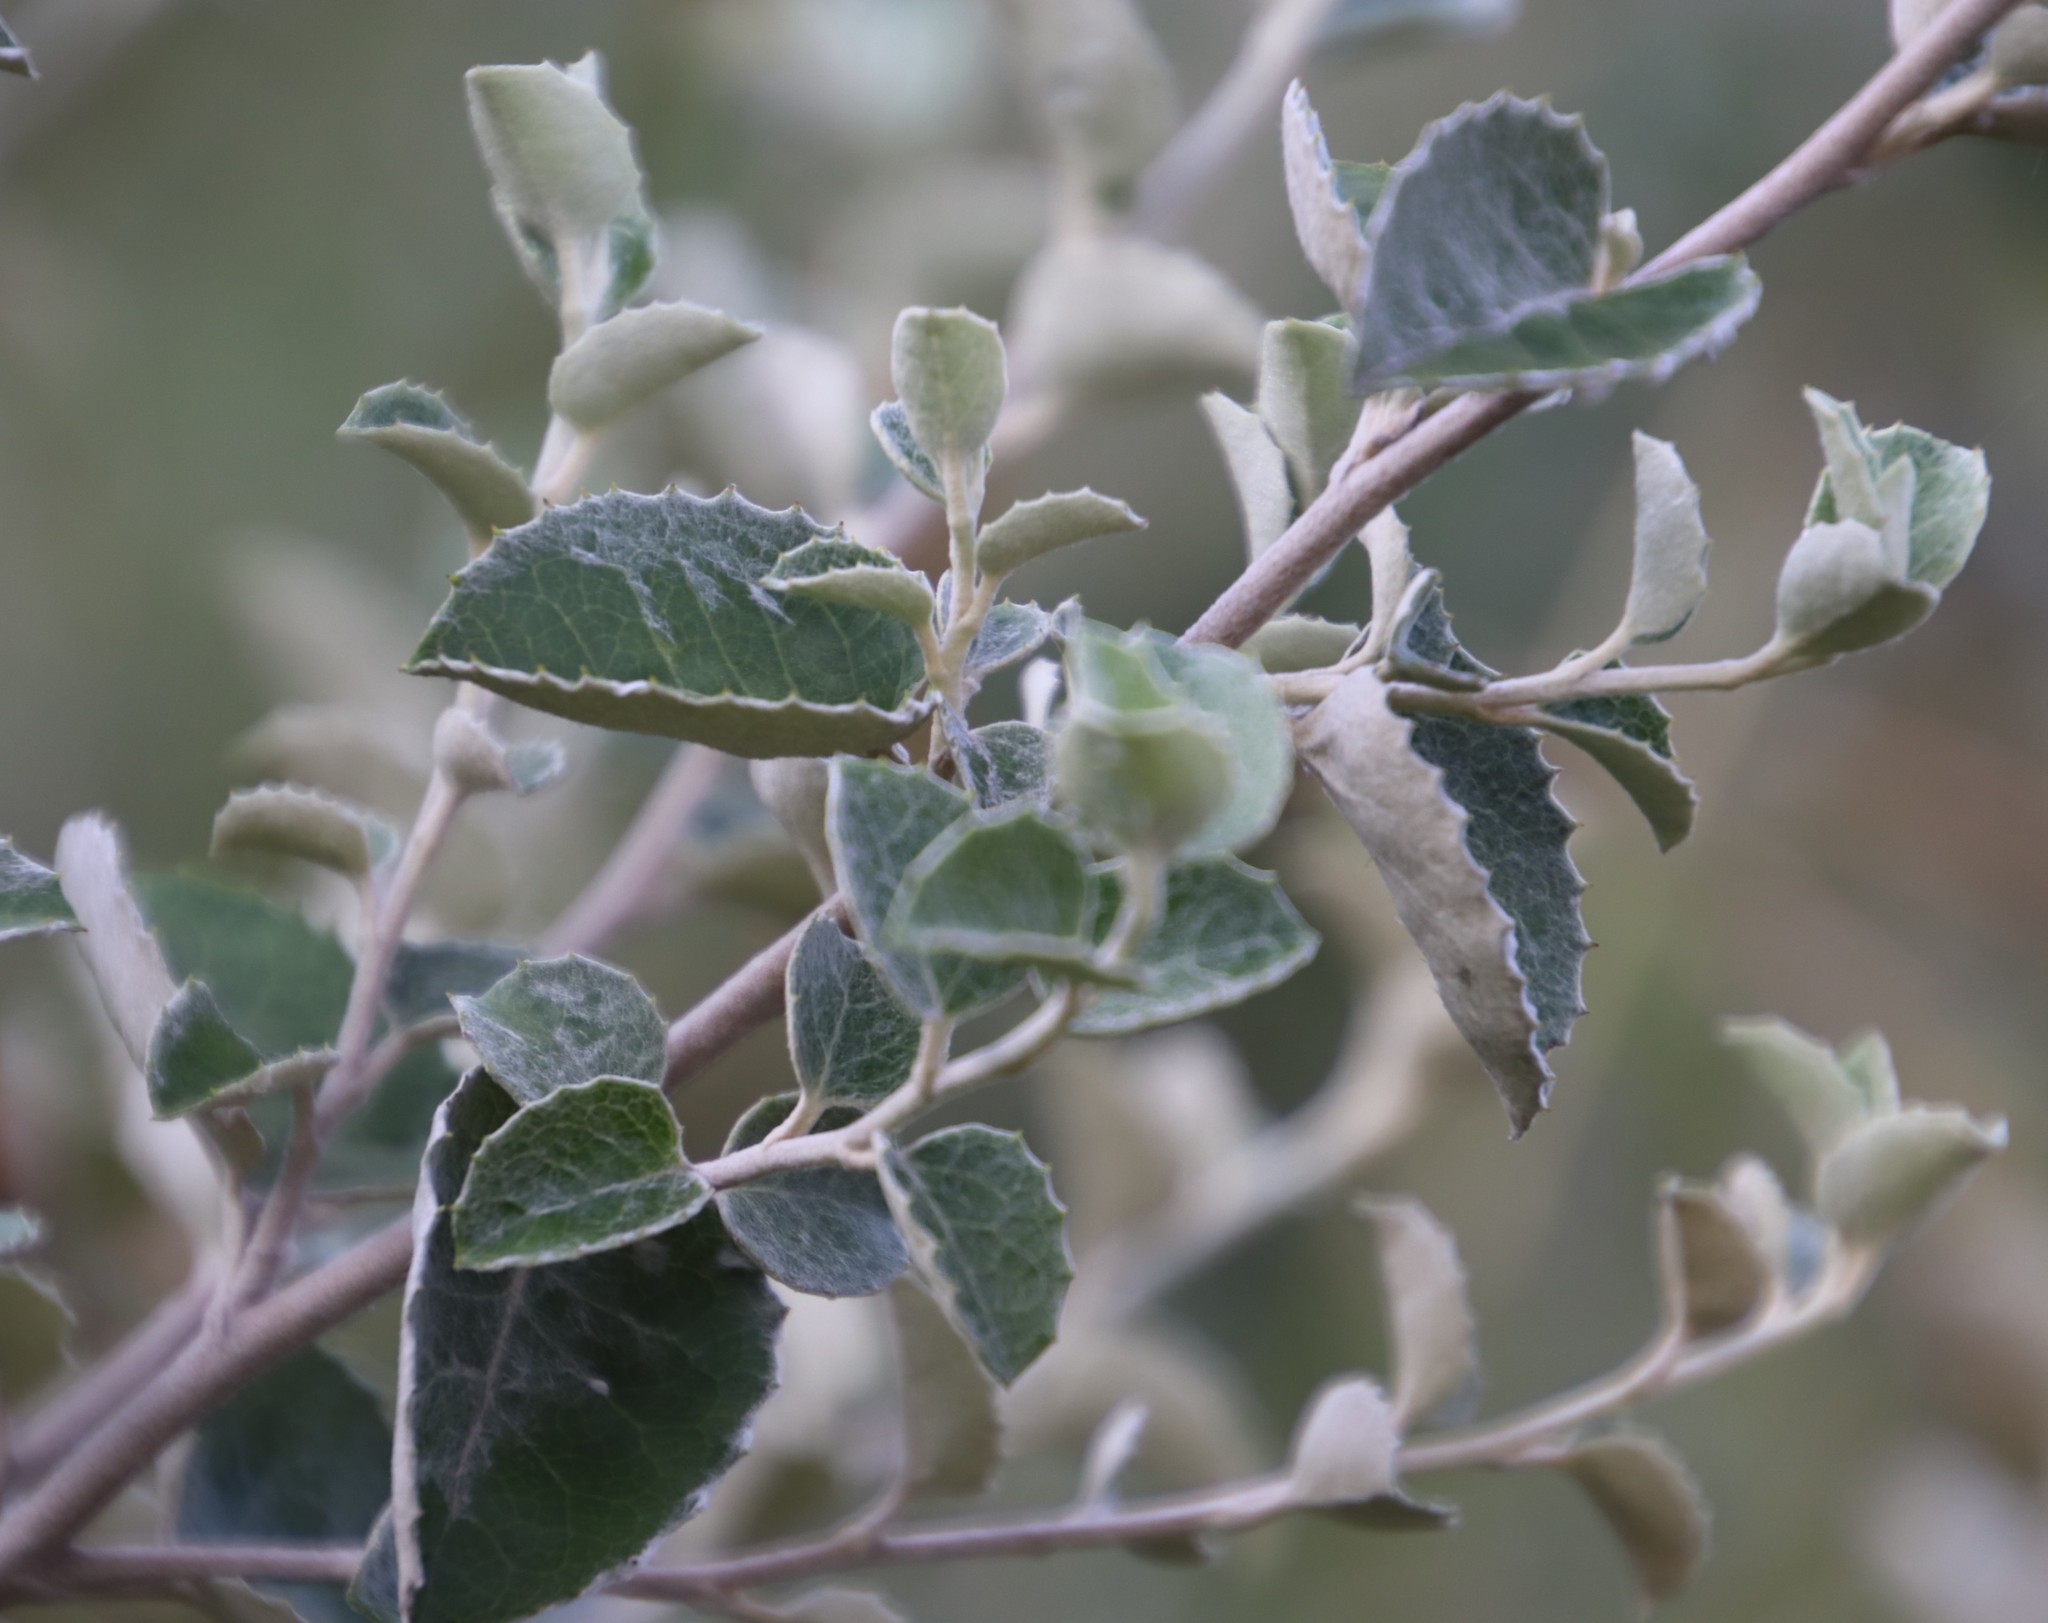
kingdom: Plantae
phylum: Tracheophyta
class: Magnoliopsida
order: Asterales
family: Asteraceae
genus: Printzia
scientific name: Printzia pyrifolia
